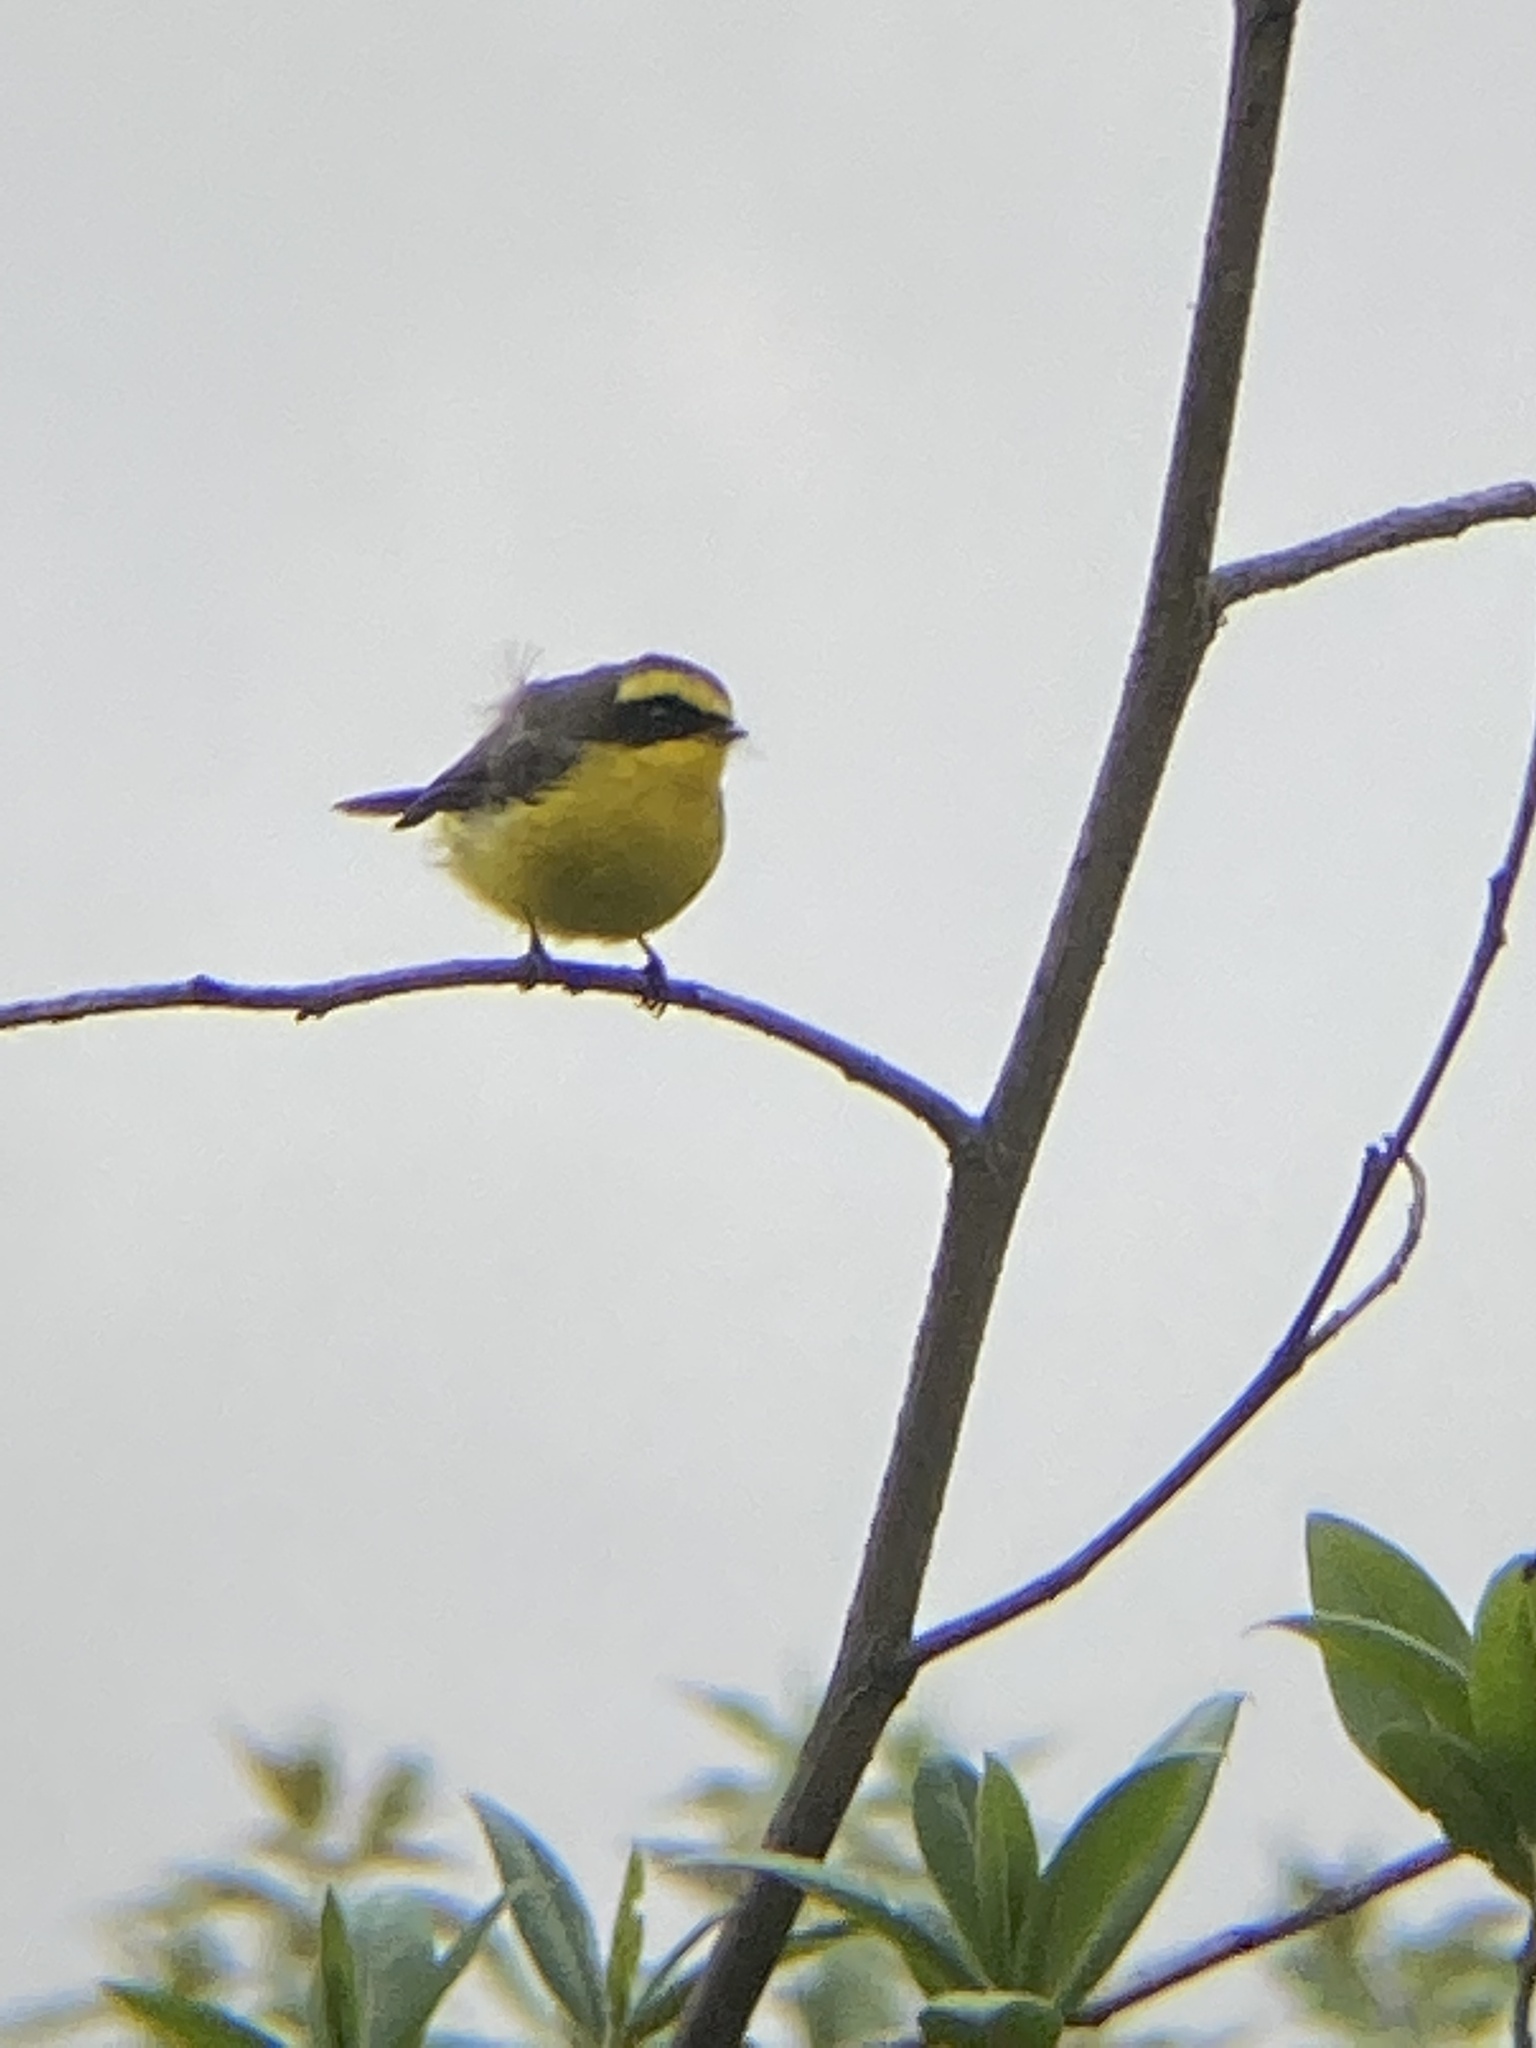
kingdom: Animalia
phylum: Chordata
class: Aves
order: Passeriformes
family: Stenostiridae
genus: Chelidorhynx
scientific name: Chelidorhynx hypoxantha
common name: Yellow-bellied fantail
